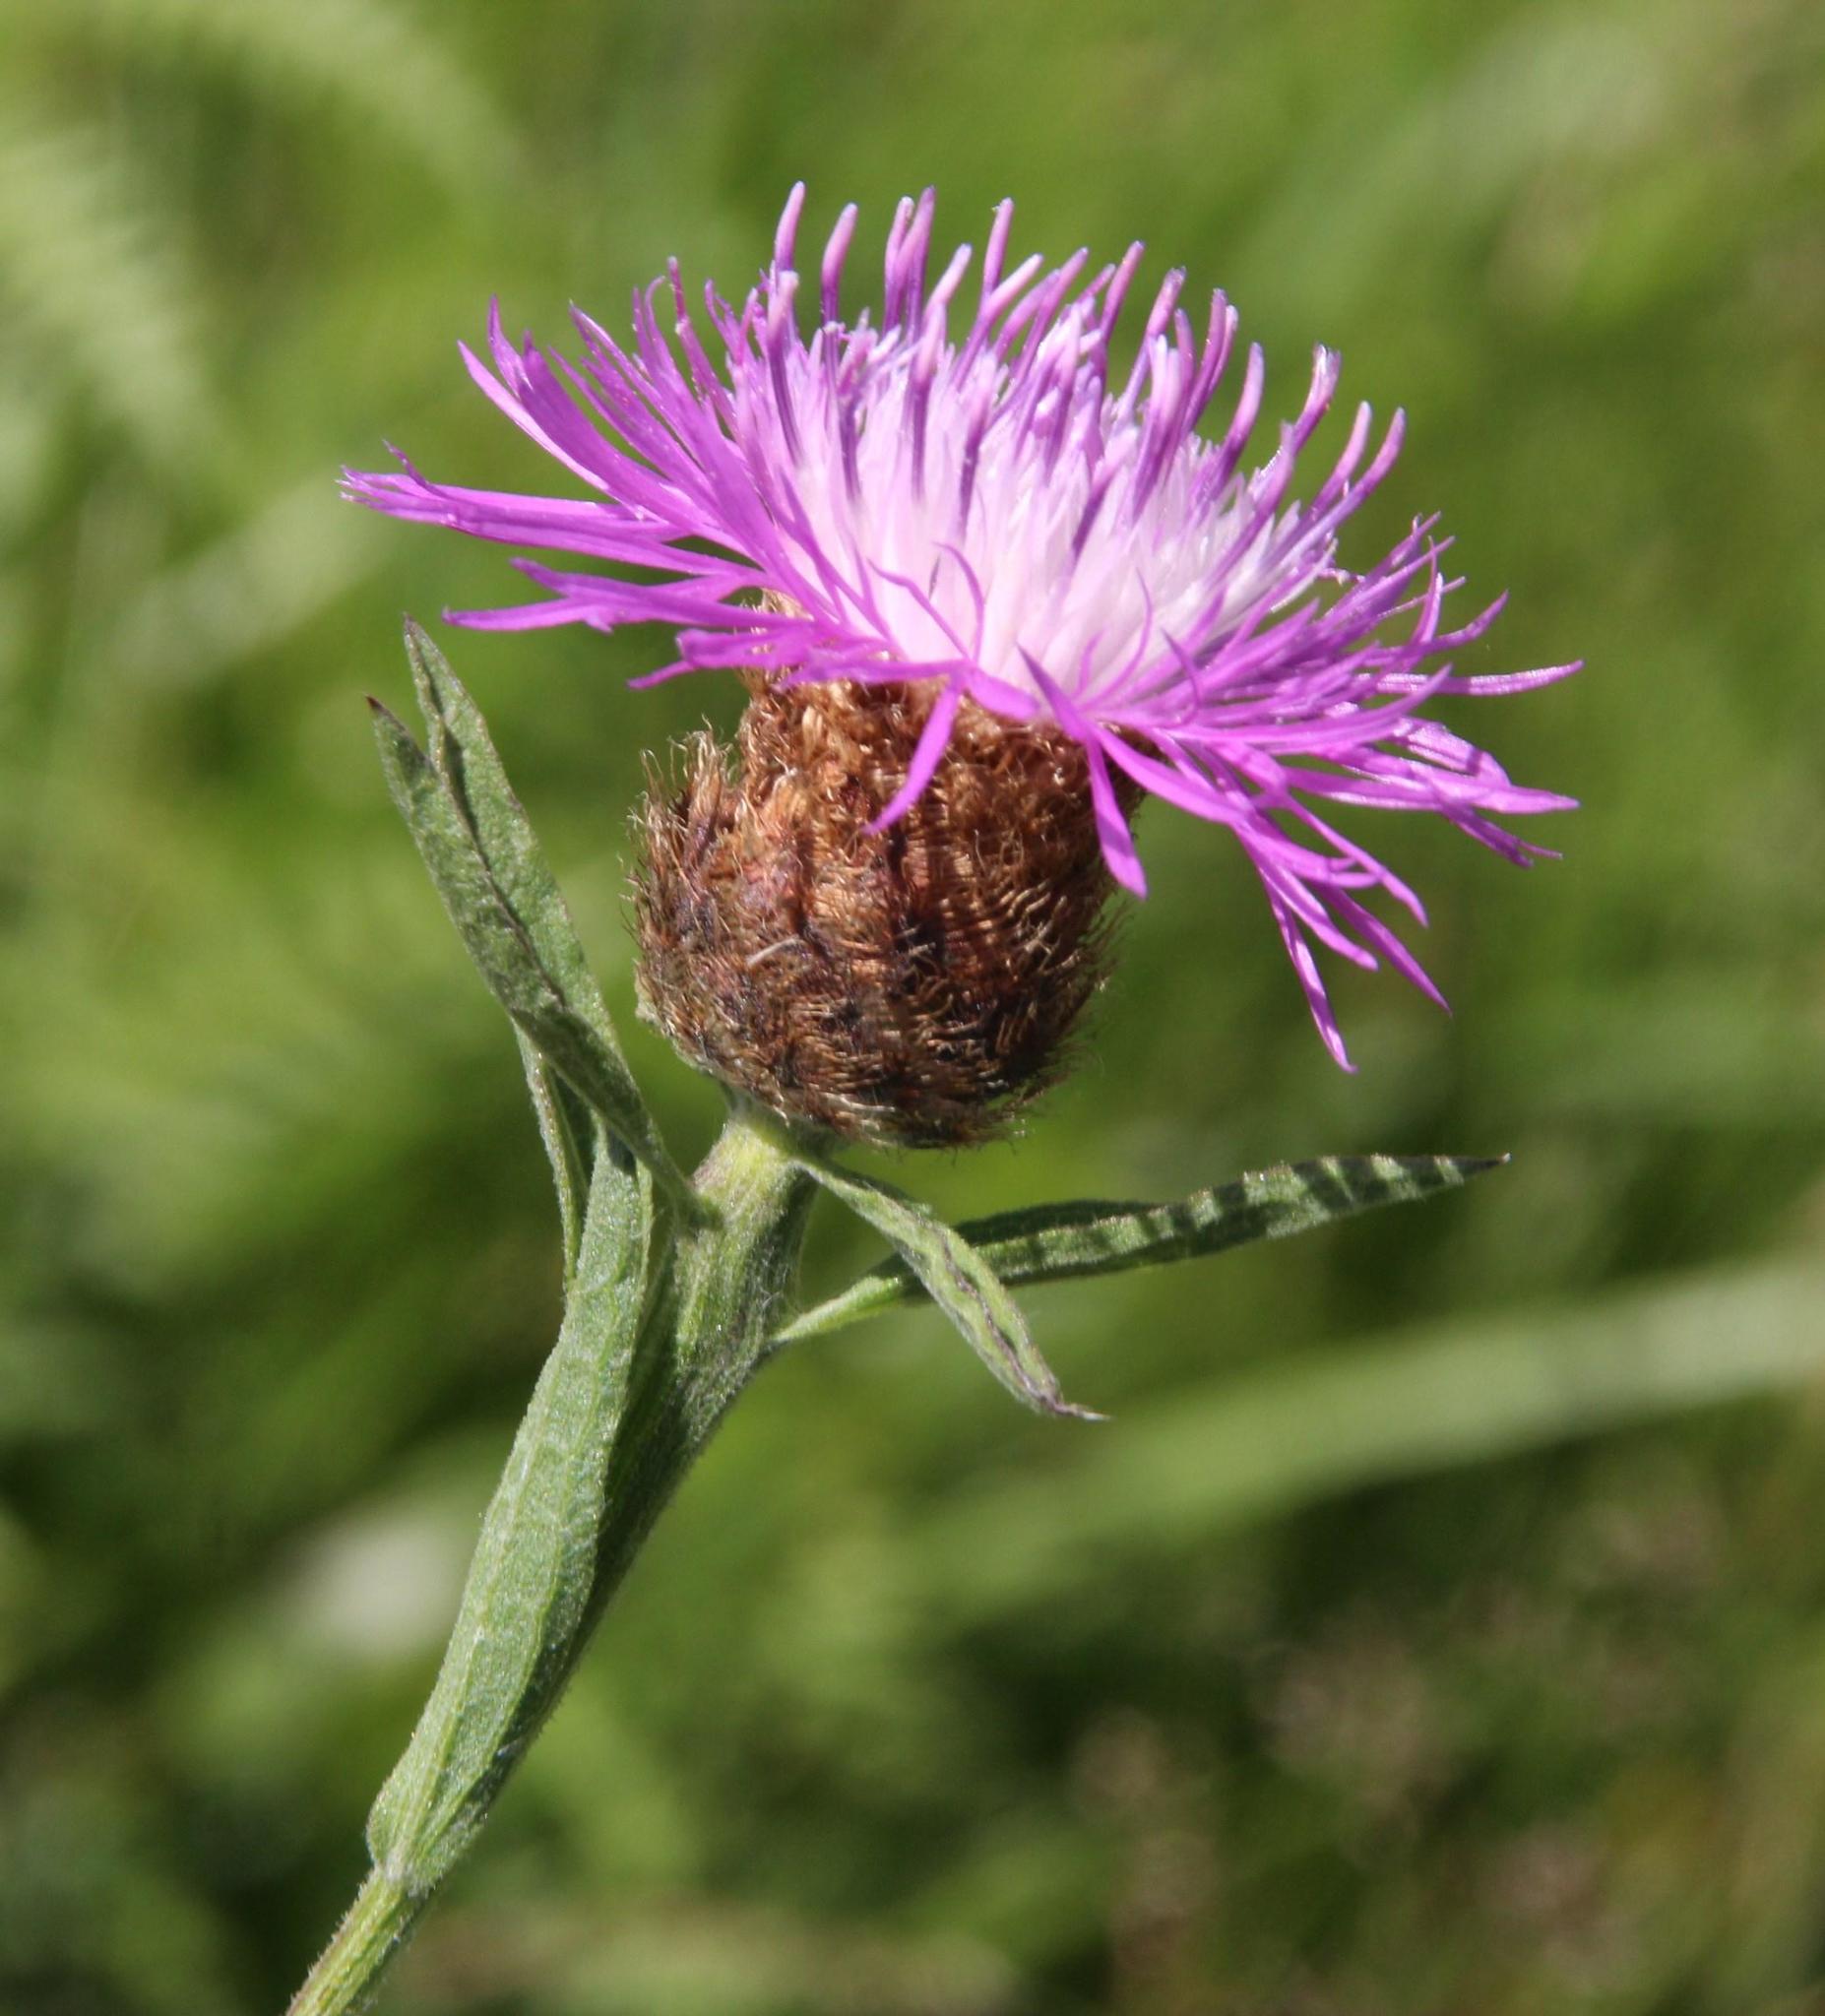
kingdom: Plantae
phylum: Tracheophyta
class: Magnoliopsida
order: Asterales
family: Asteraceae
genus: Centaurea
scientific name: Centaurea nigra
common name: Lesser knapweed
